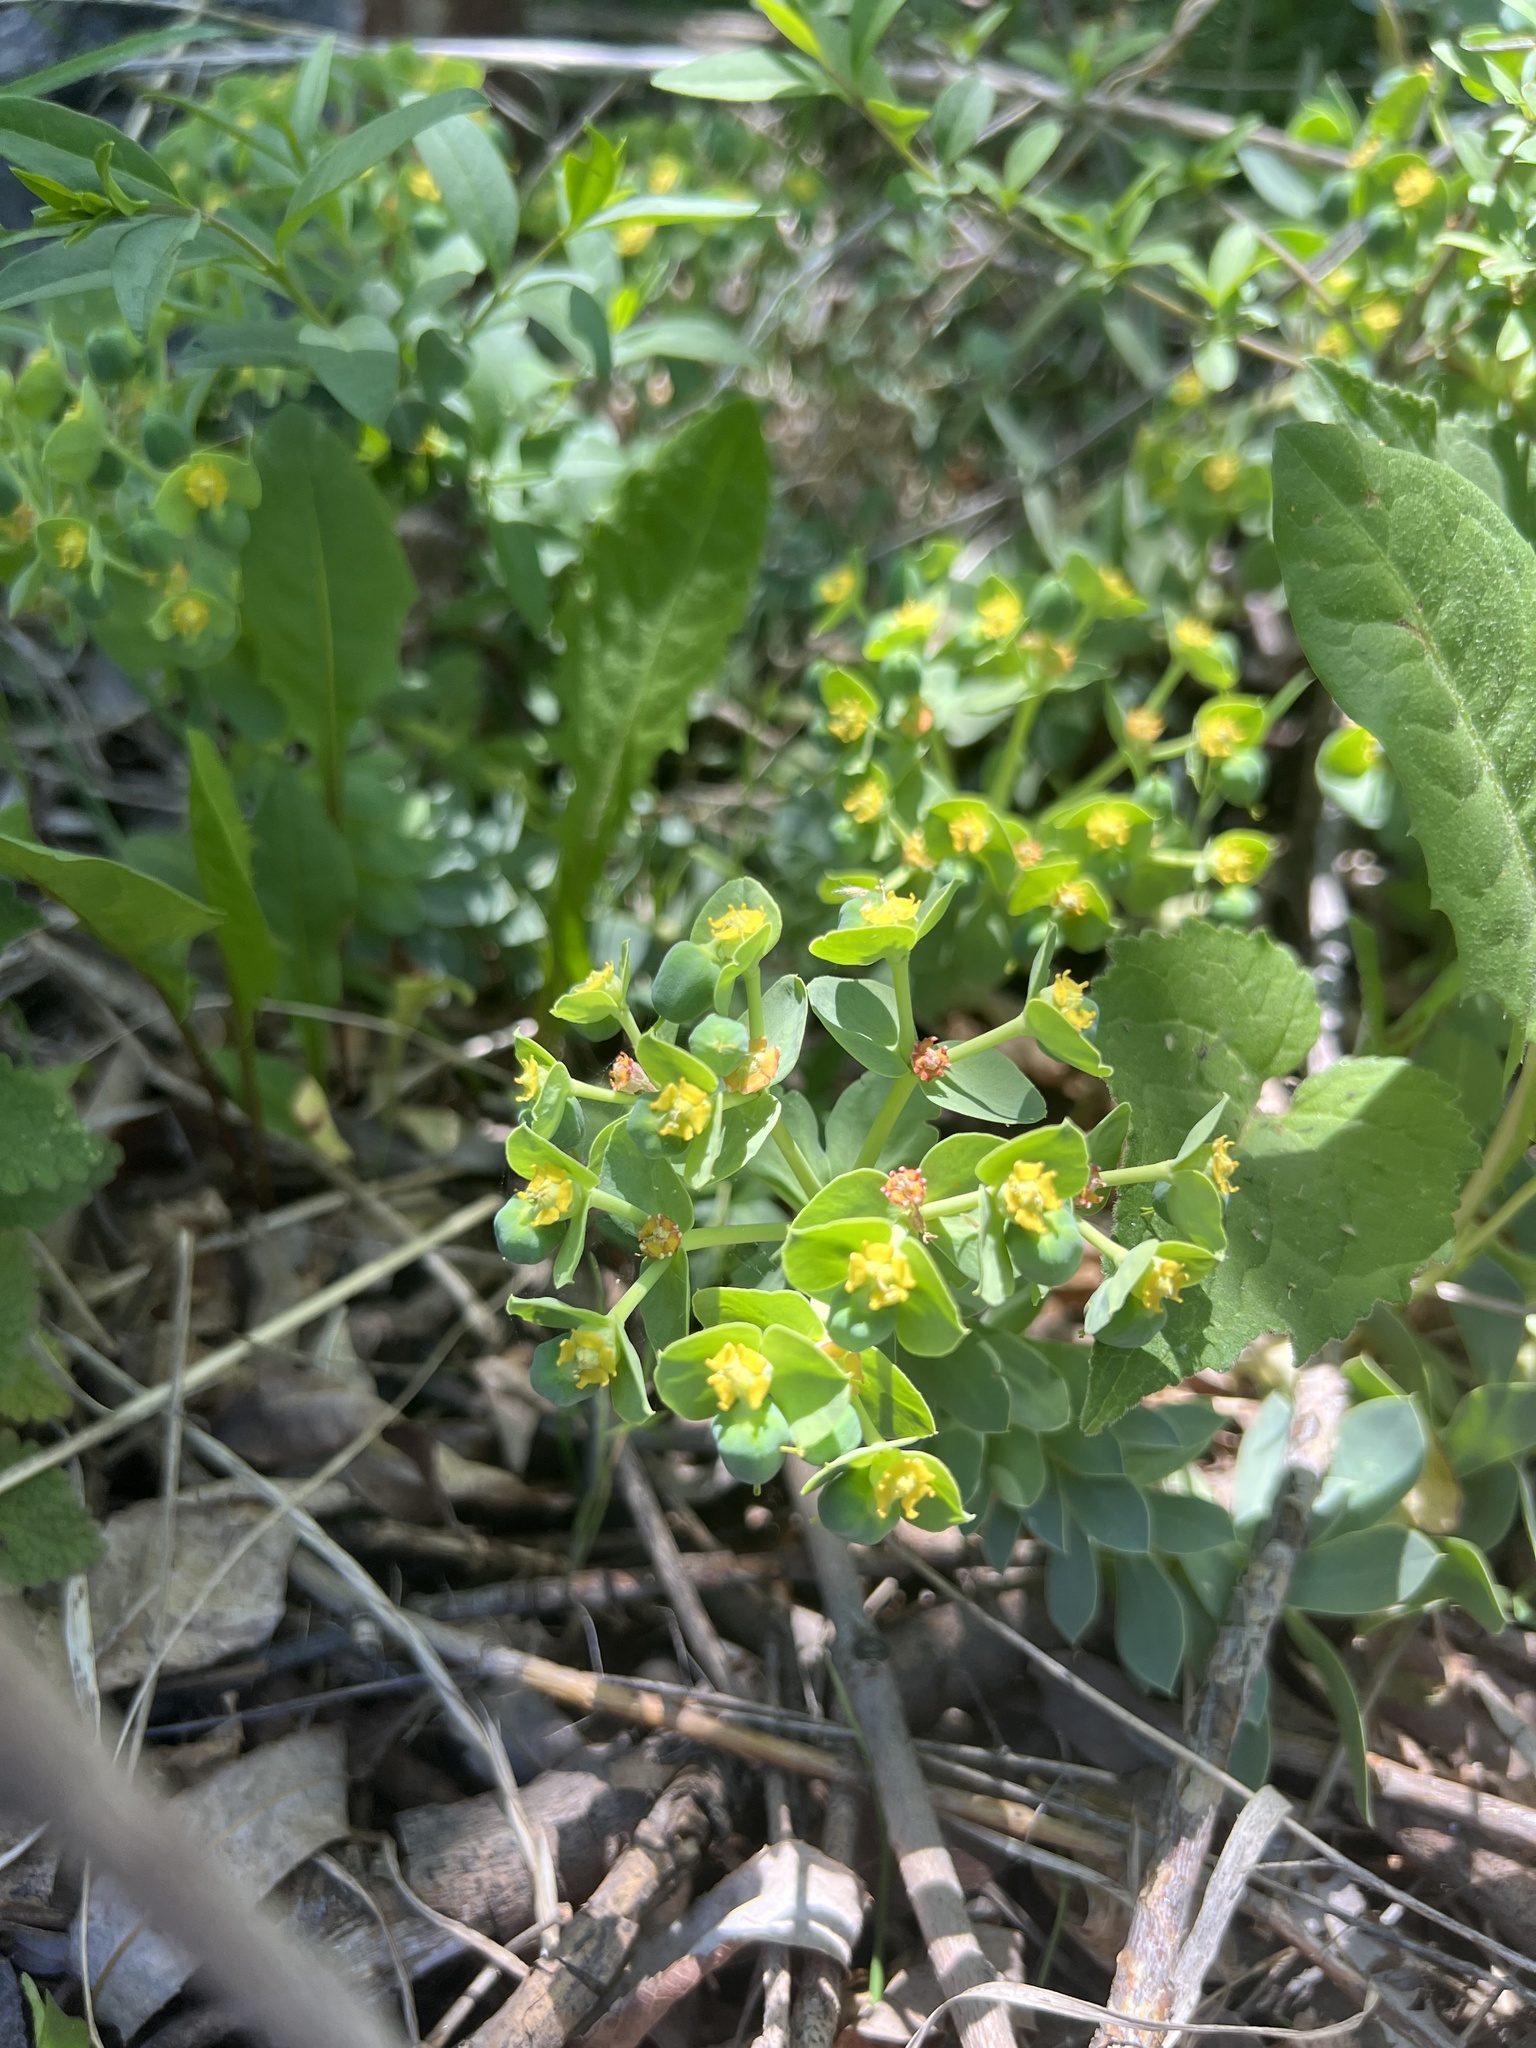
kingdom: Plantae
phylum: Tracheophyta
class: Magnoliopsida
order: Malpighiales
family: Euphorbiaceae
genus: Euphorbia
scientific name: Euphorbia myrsinites
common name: Myrtle spurge
